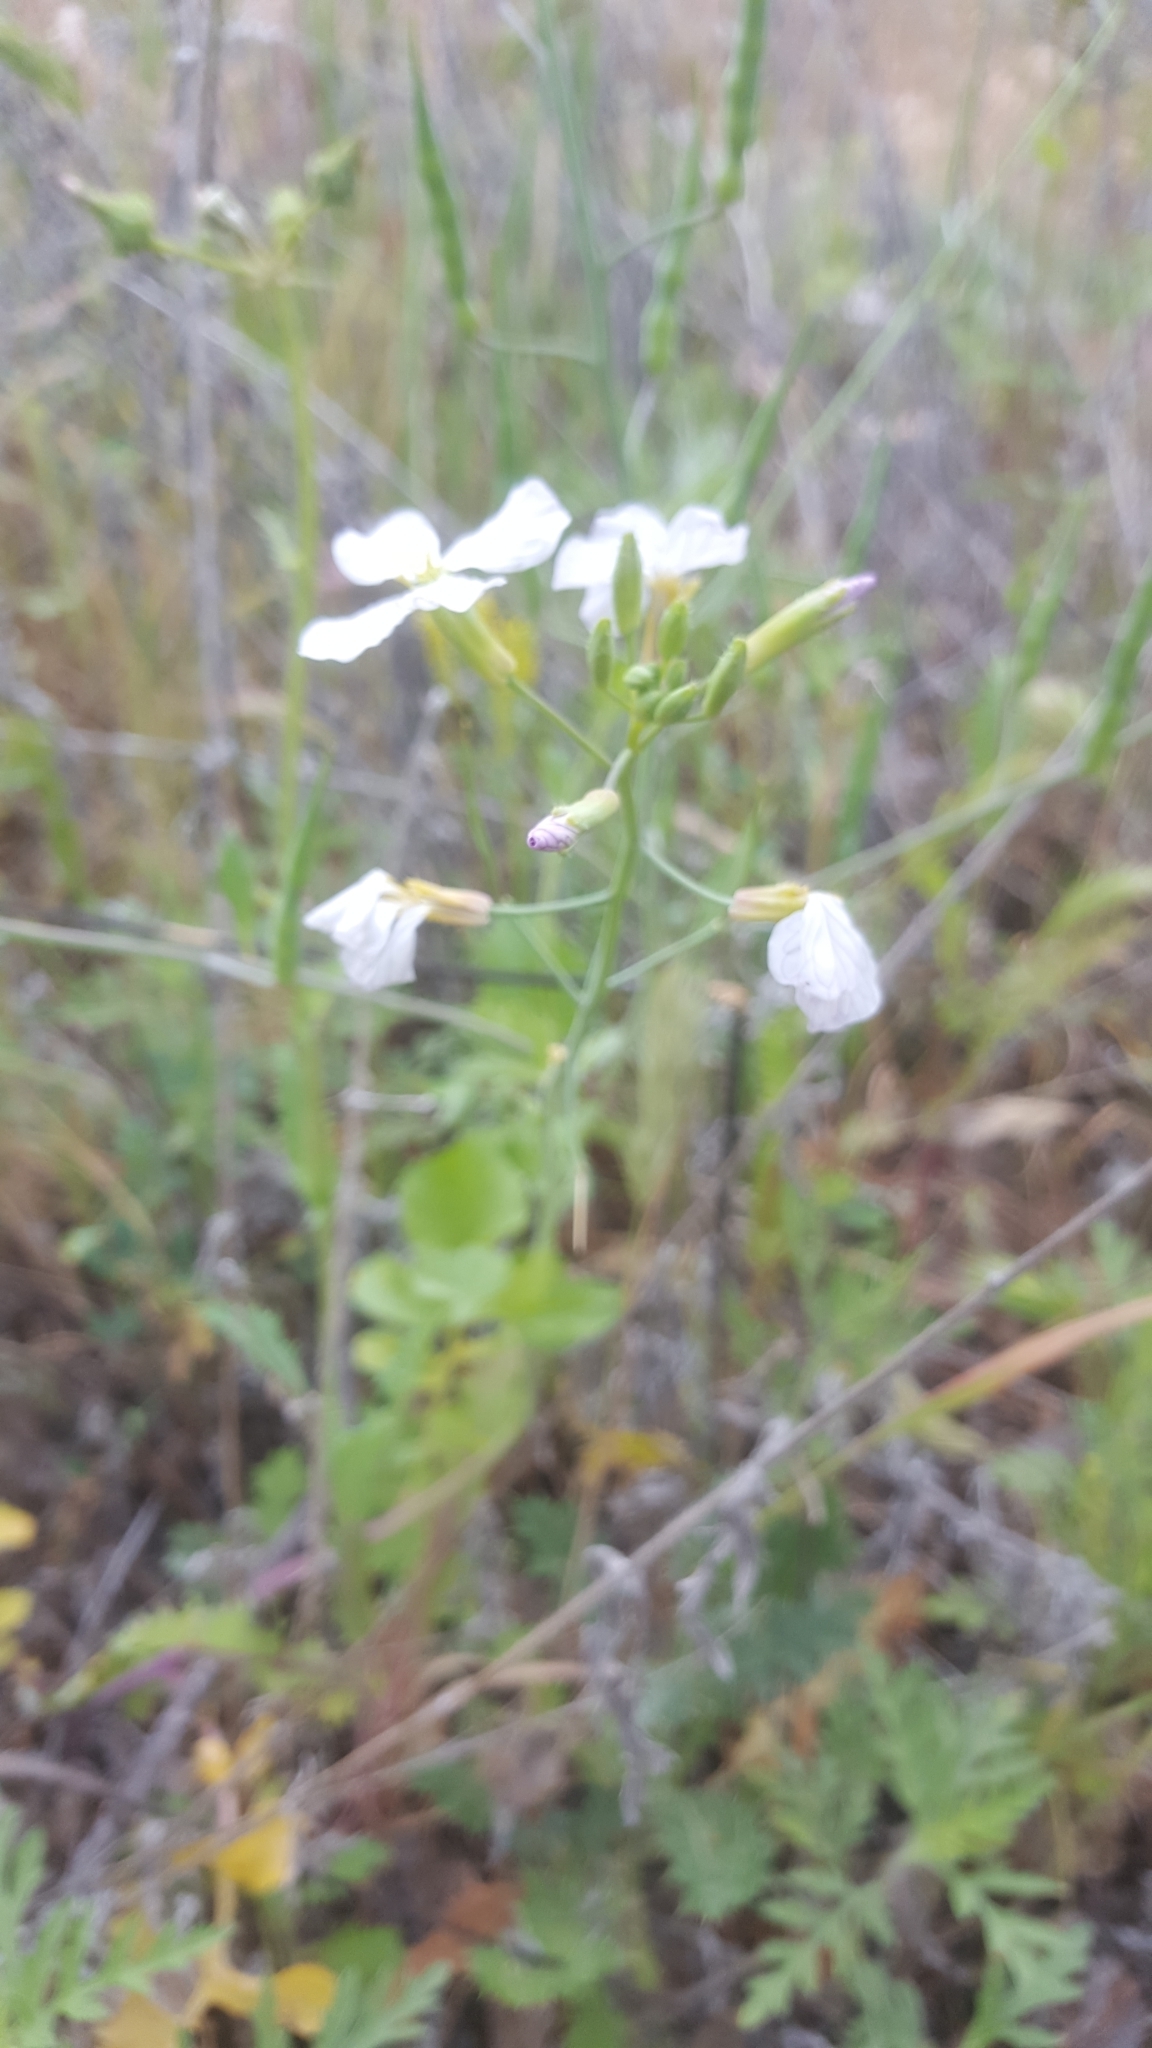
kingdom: Plantae
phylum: Tracheophyta
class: Magnoliopsida
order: Brassicales
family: Brassicaceae
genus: Raphanus
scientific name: Raphanus sativus
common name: Cultivated radish
